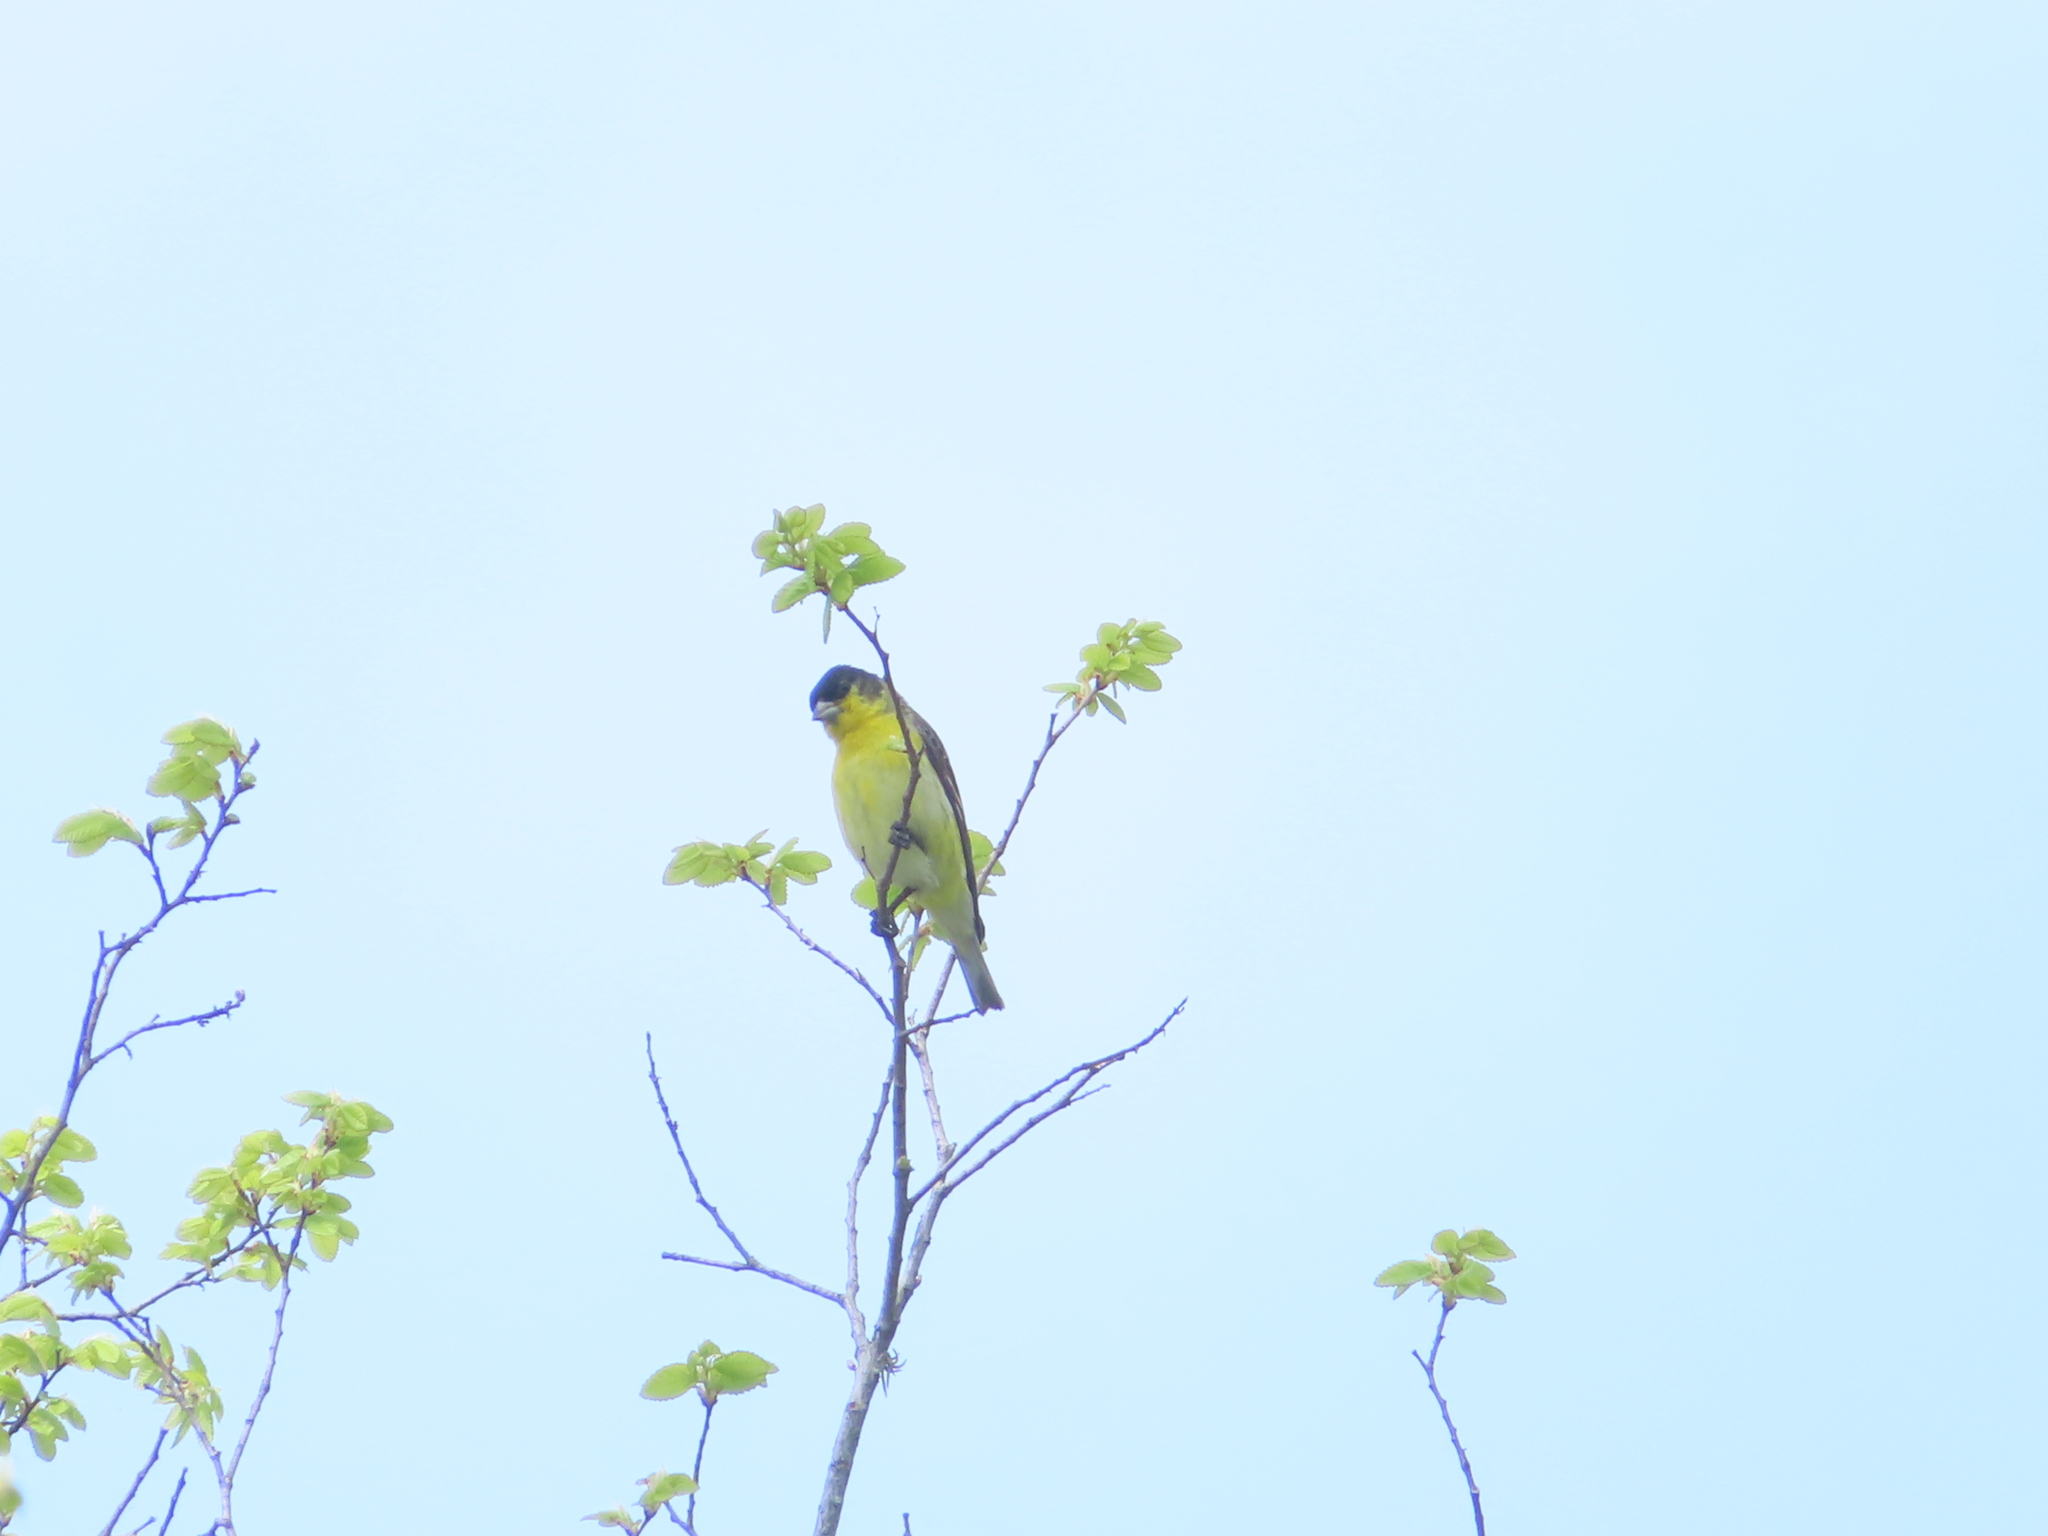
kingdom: Animalia
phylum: Chordata
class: Aves
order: Passeriformes
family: Fringillidae
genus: Spinus
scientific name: Spinus psaltria
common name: Lesser goldfinch
